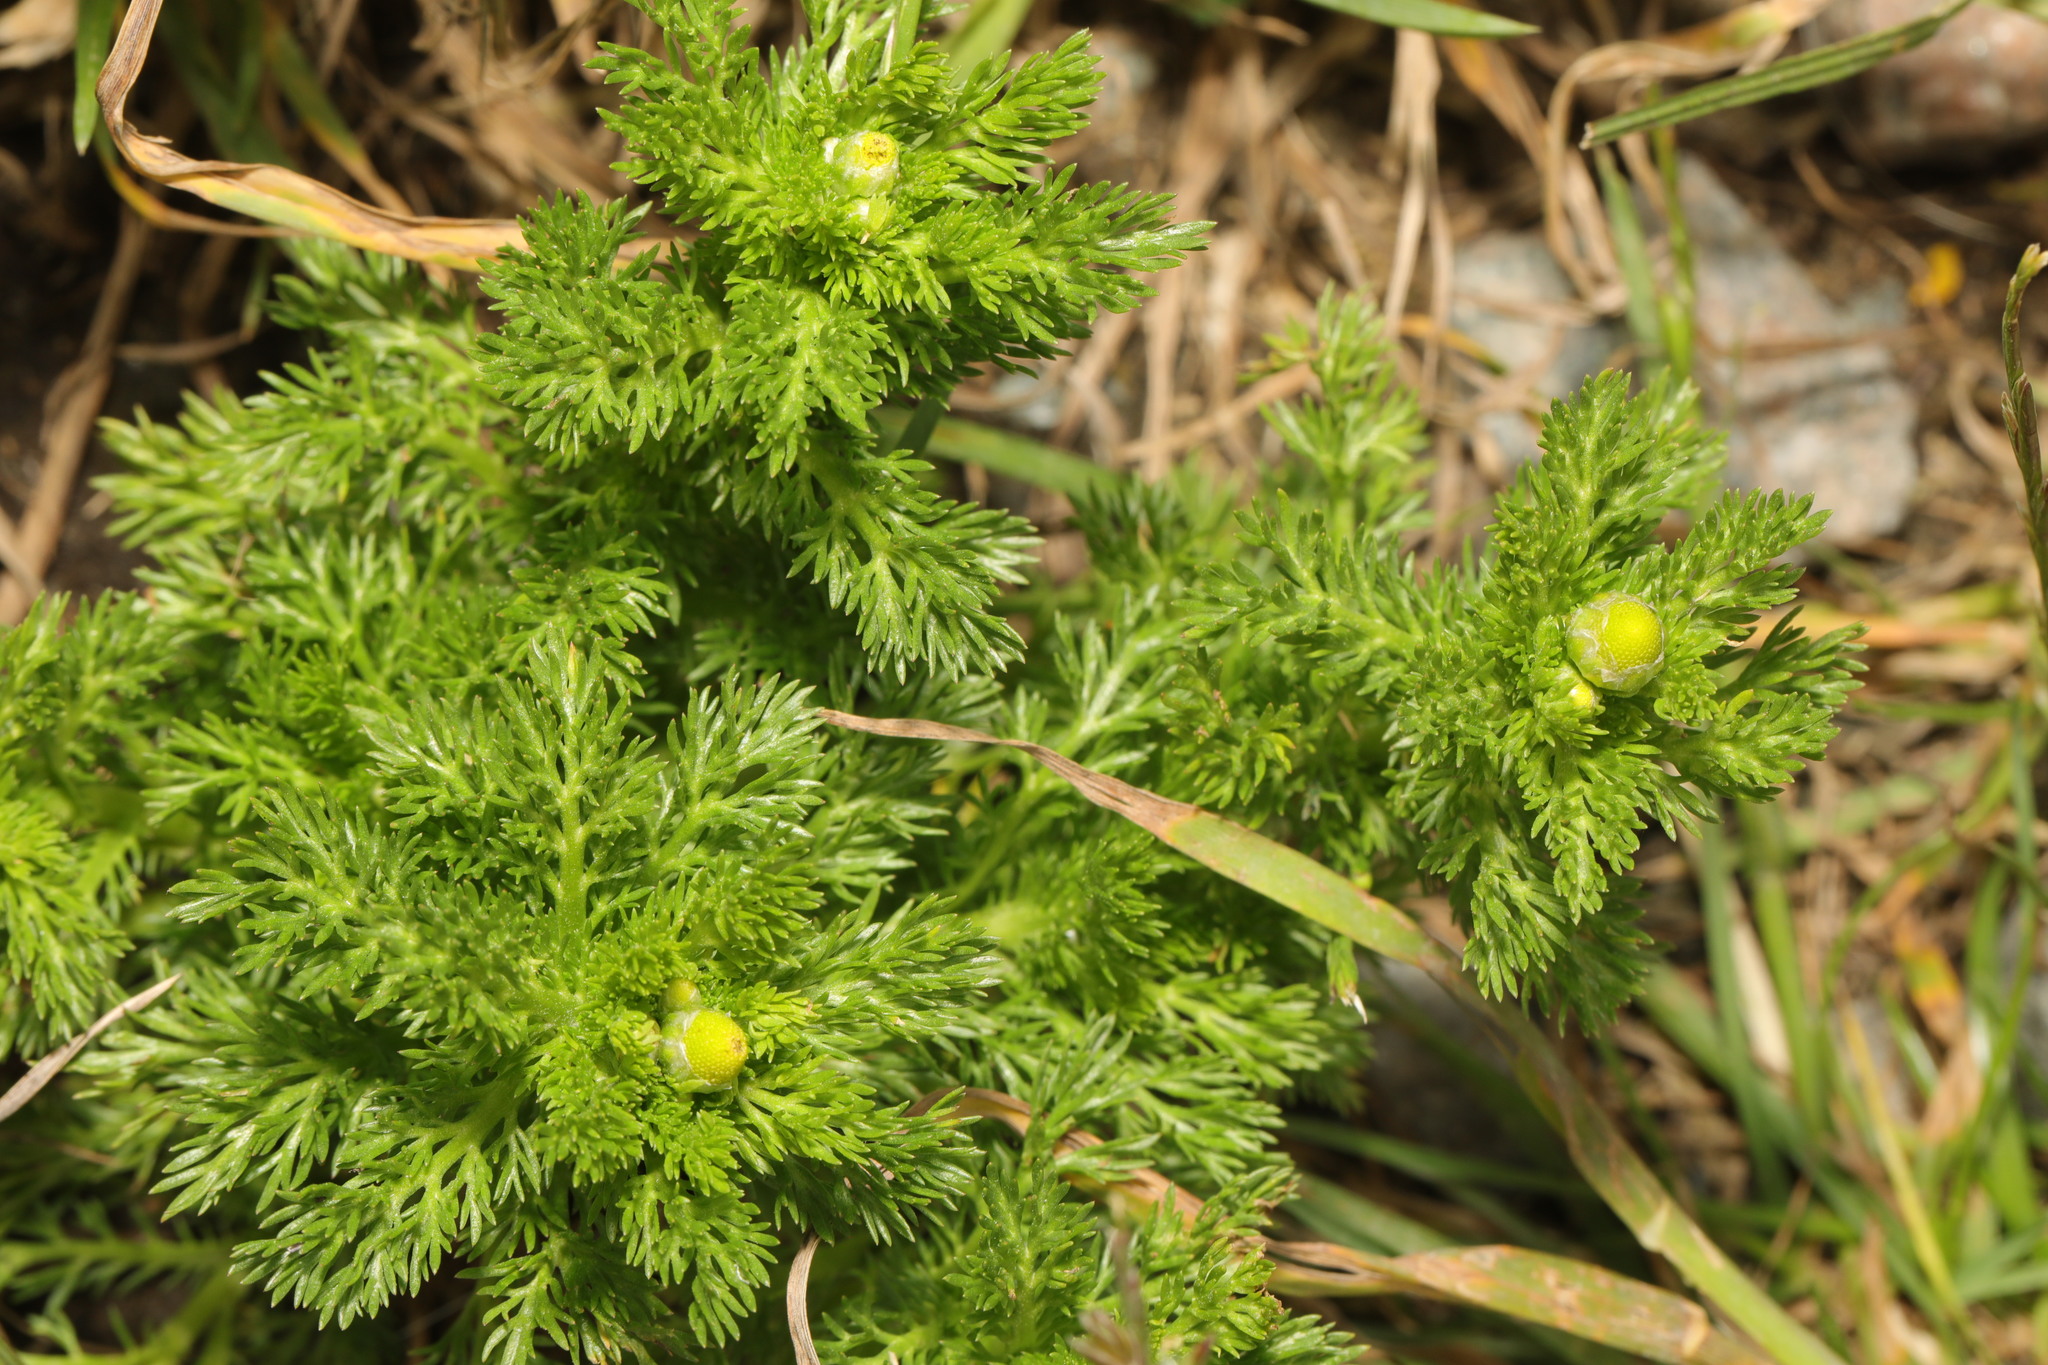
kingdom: Plantae
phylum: Tracheophyta
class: Magnoliopsida
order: Asterales
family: Asteraceae
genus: Matricaria
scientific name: Matricaria discoidea
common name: Disc mayweed
